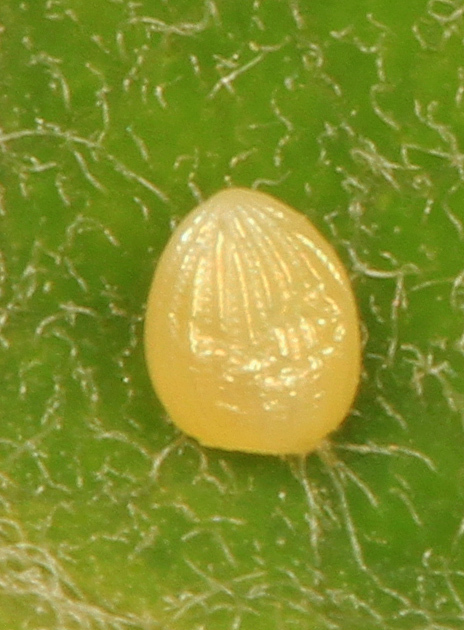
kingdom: Animalia
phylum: Arthropoda
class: Insecta
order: Lepidoptera
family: Nymphalidae
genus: Danaus
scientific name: Danaus plexippus
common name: Monarch
